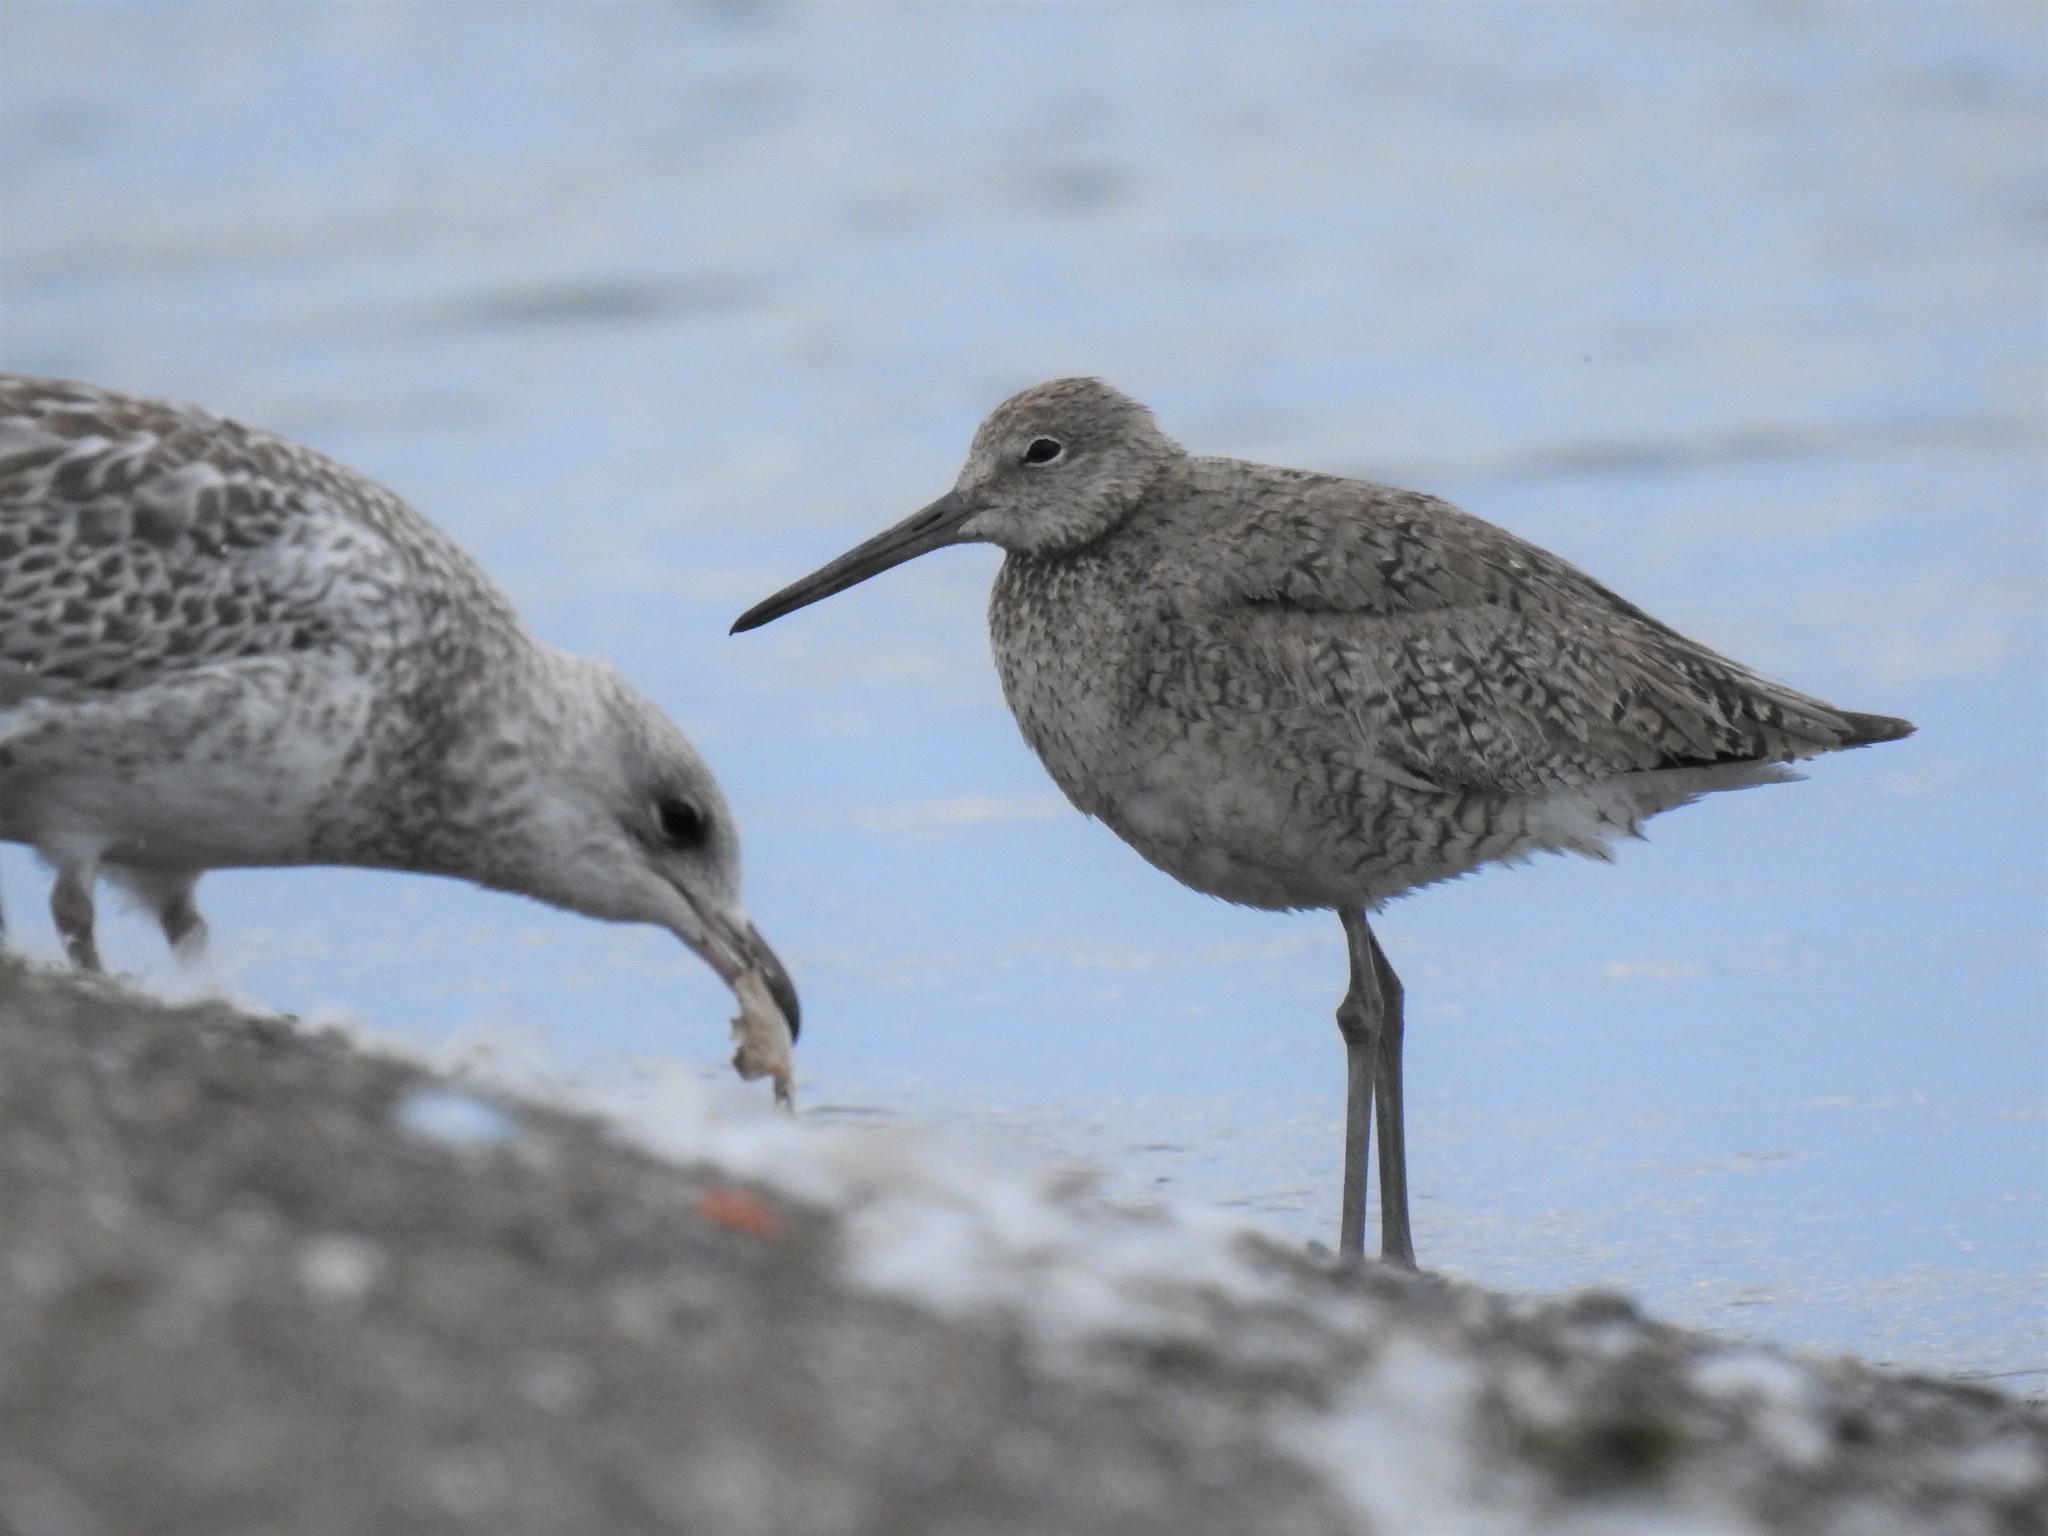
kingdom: Animalia
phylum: Chordata
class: Aves
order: Charadriiformes
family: Scolopacidae
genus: Tringa
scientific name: Tringa semipalmata
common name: Willet
